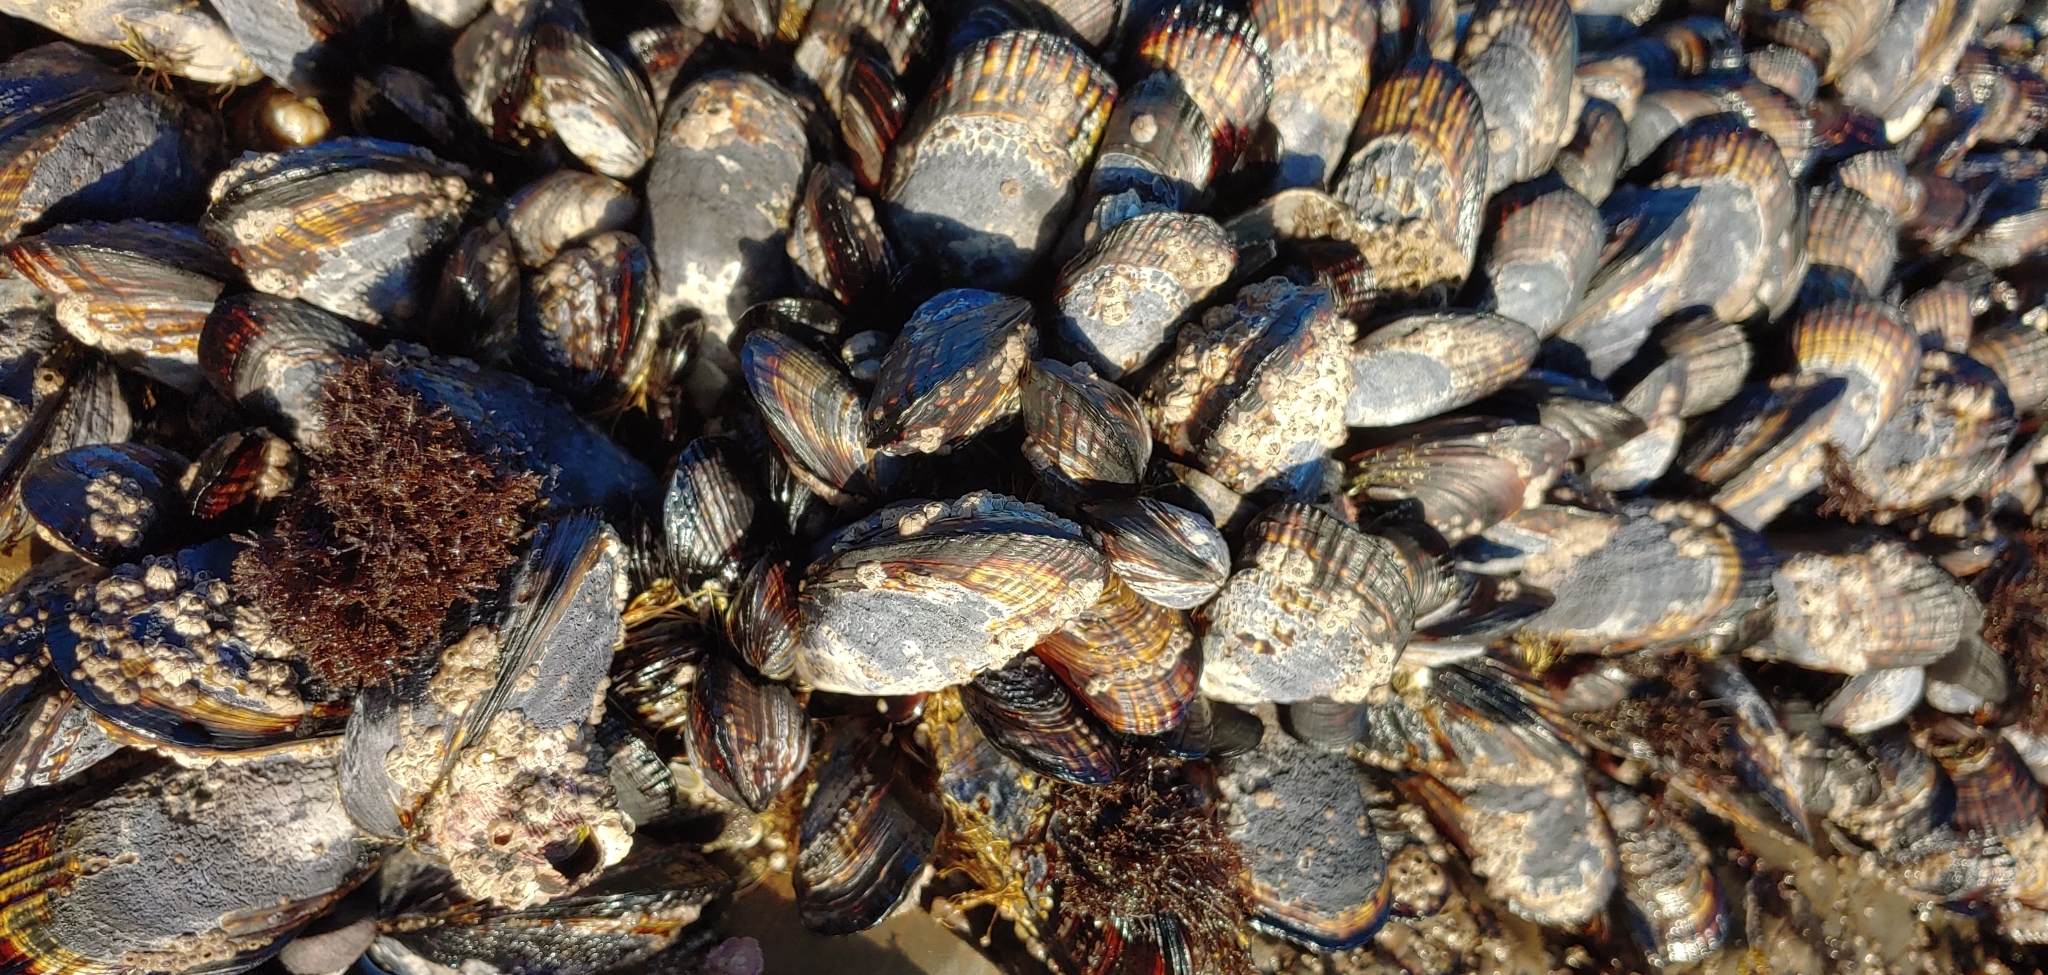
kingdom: Animalia
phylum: Mollusca
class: Bivalvia
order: Mytilida
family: Mytilidae
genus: Mytilus
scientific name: Mytilus californianus
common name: California mussel
